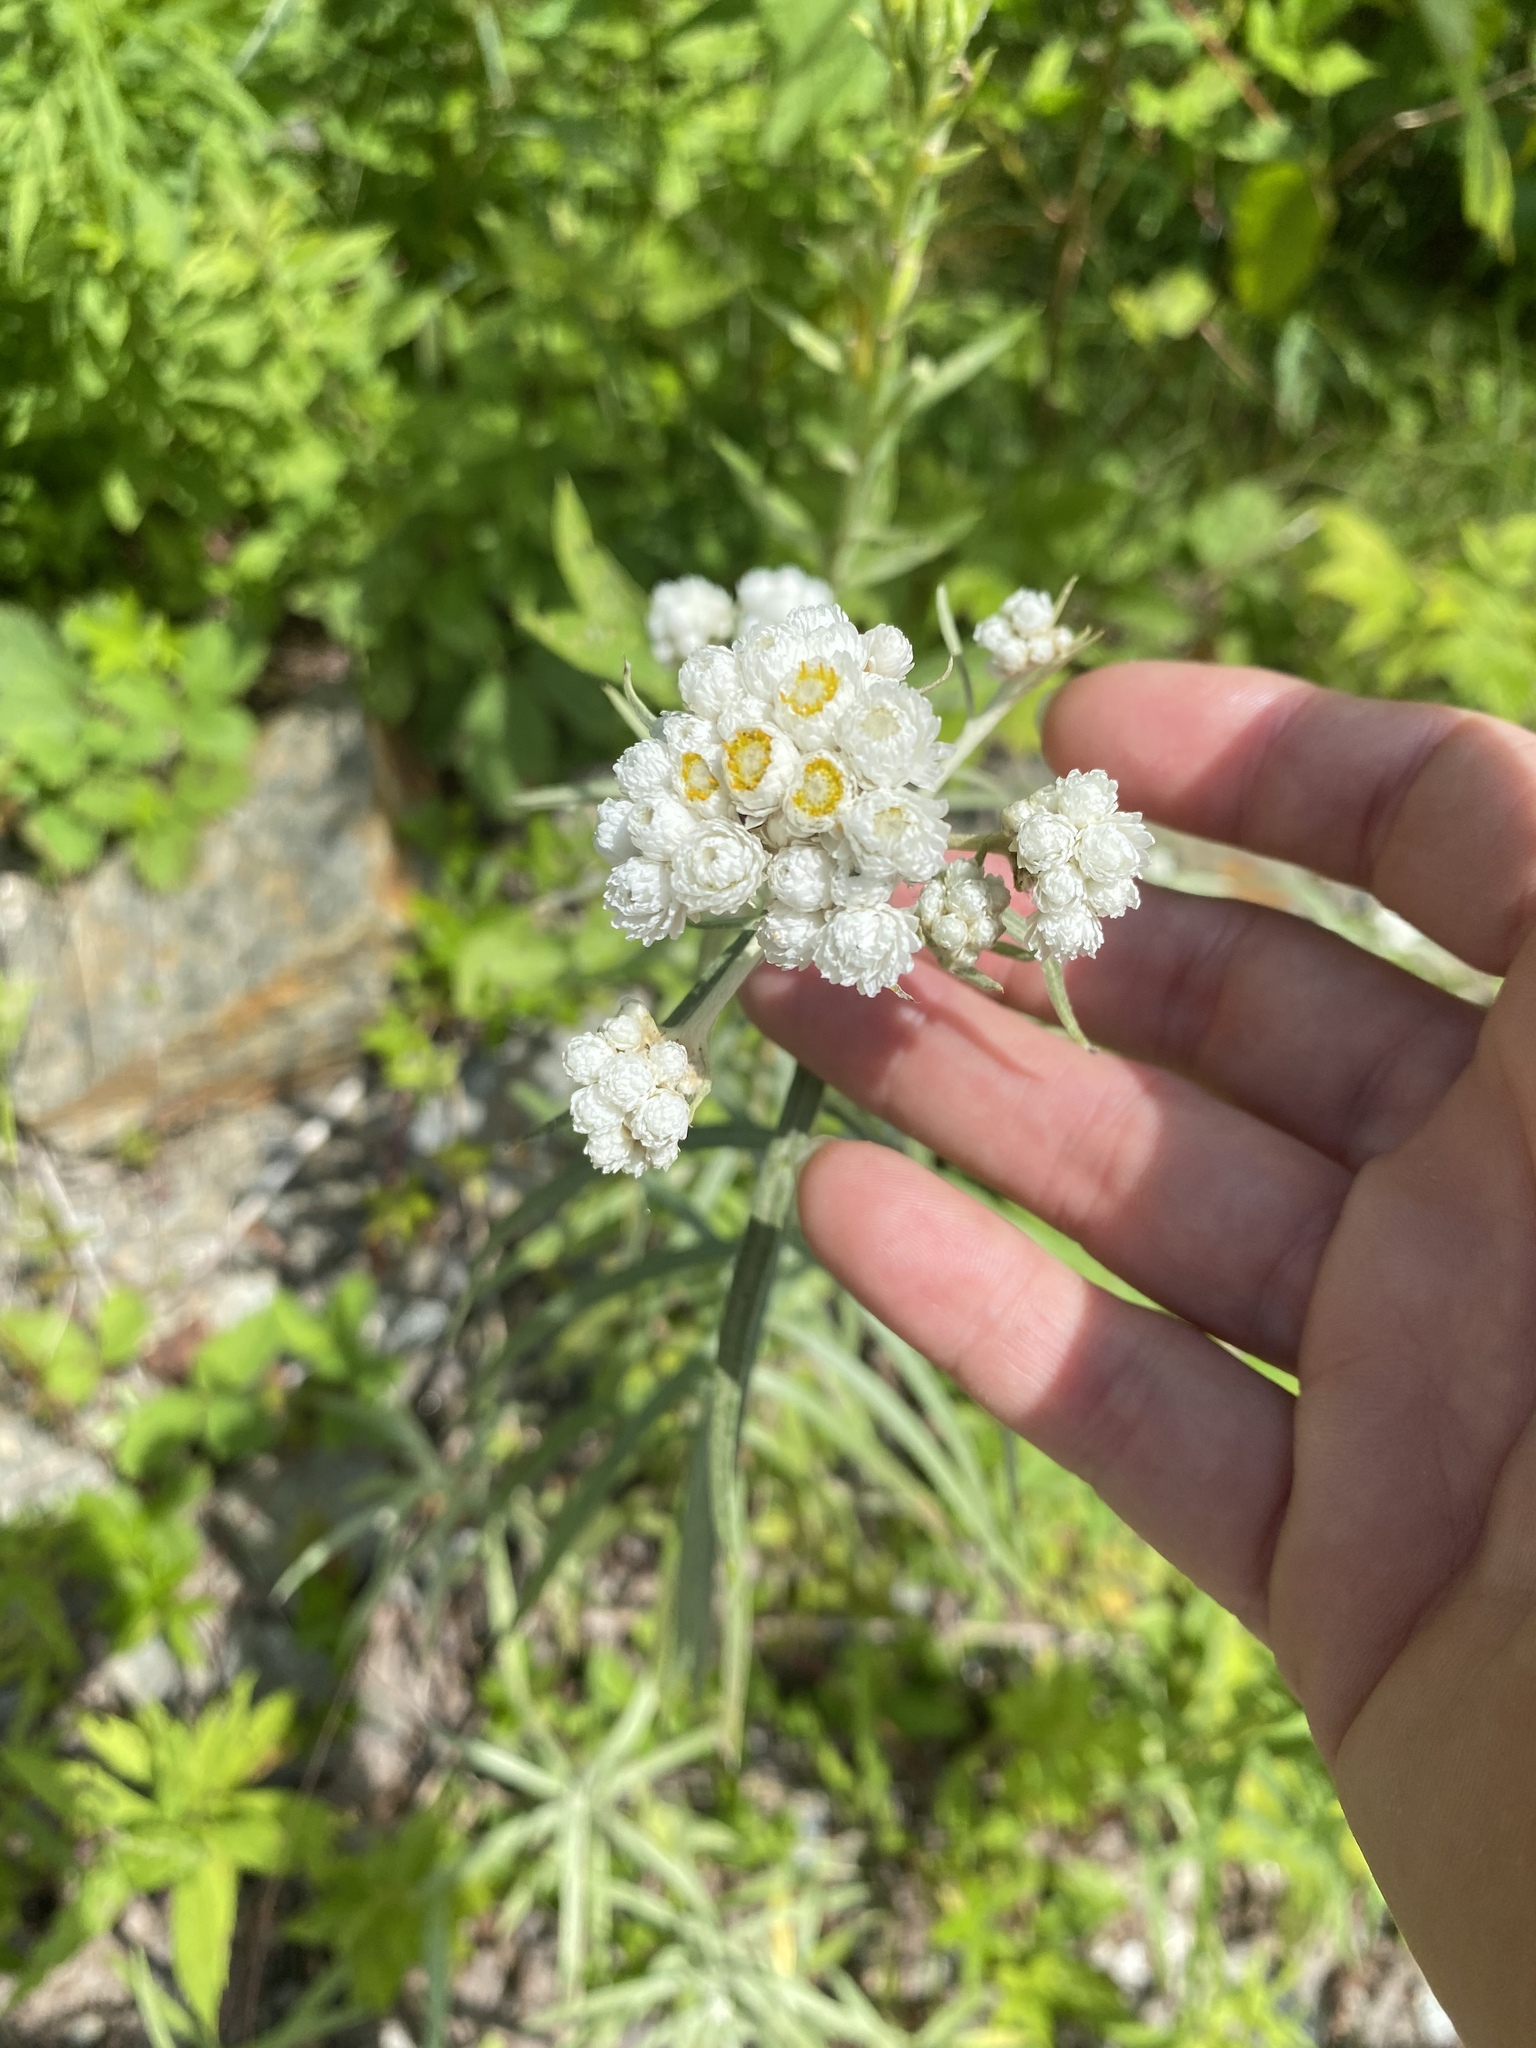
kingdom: Plantae
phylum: Tracheophyta
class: Magnoliopsida
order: Asterales
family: Asteraceae
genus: Anaphalis
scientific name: Anaphalis margaritacea
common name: Pearly everlasting
